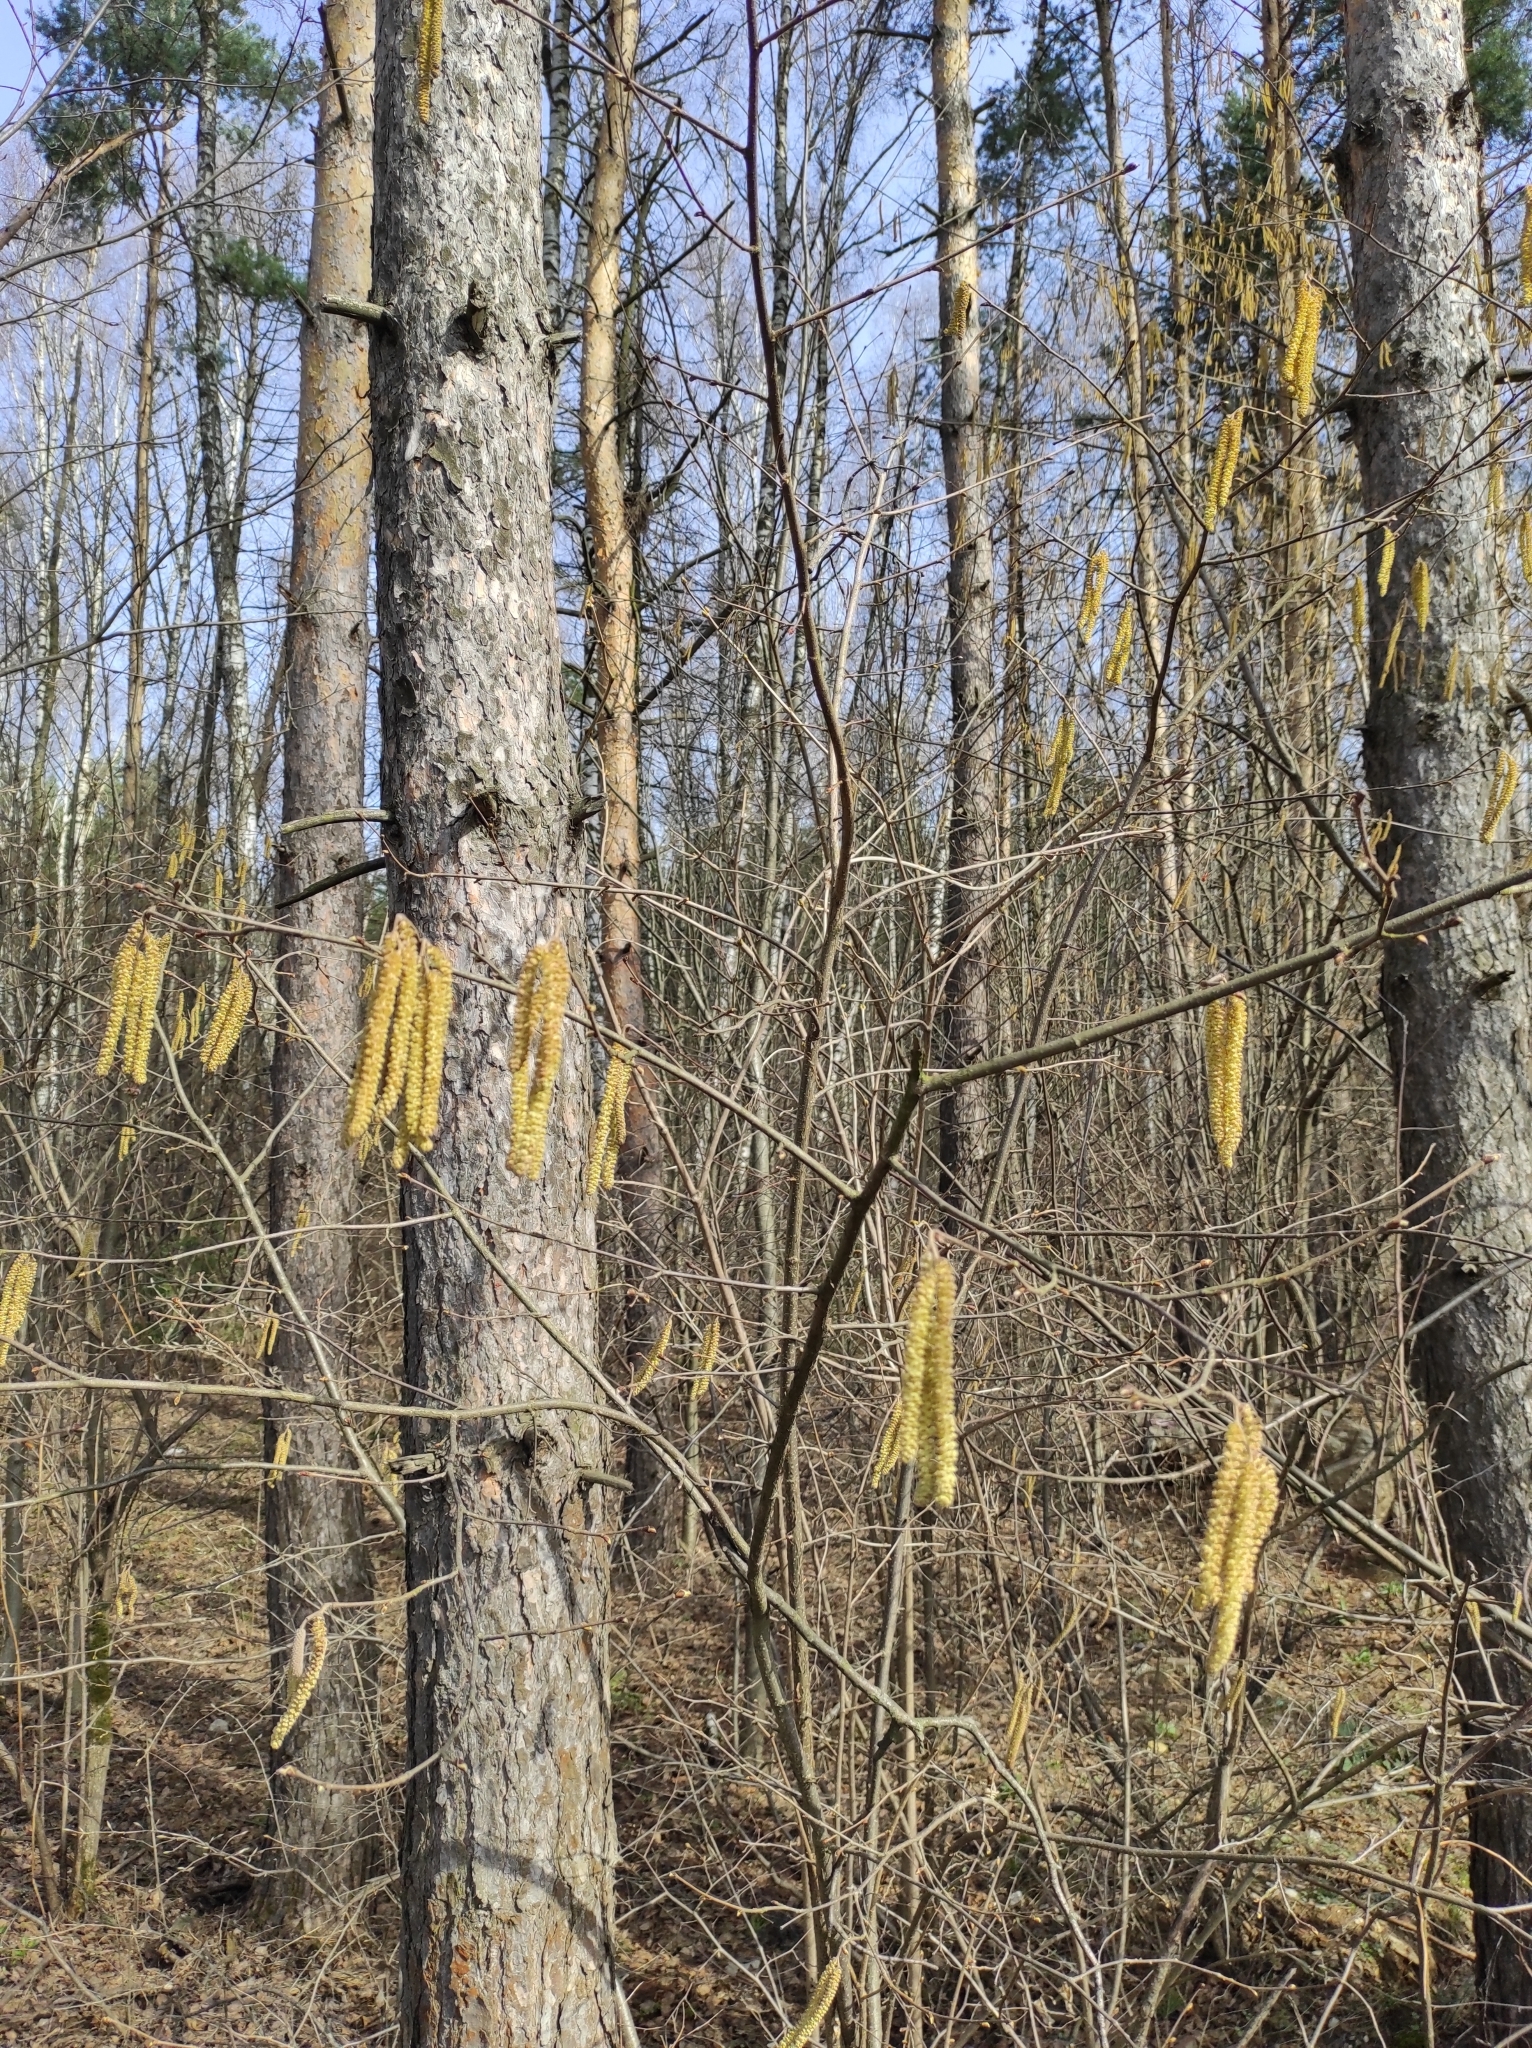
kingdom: Plantae
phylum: Tracheophyta
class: Magnoliopsida
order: Fagales
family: Betulaceae
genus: Corylus
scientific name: Corylus avellana
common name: European hazel
